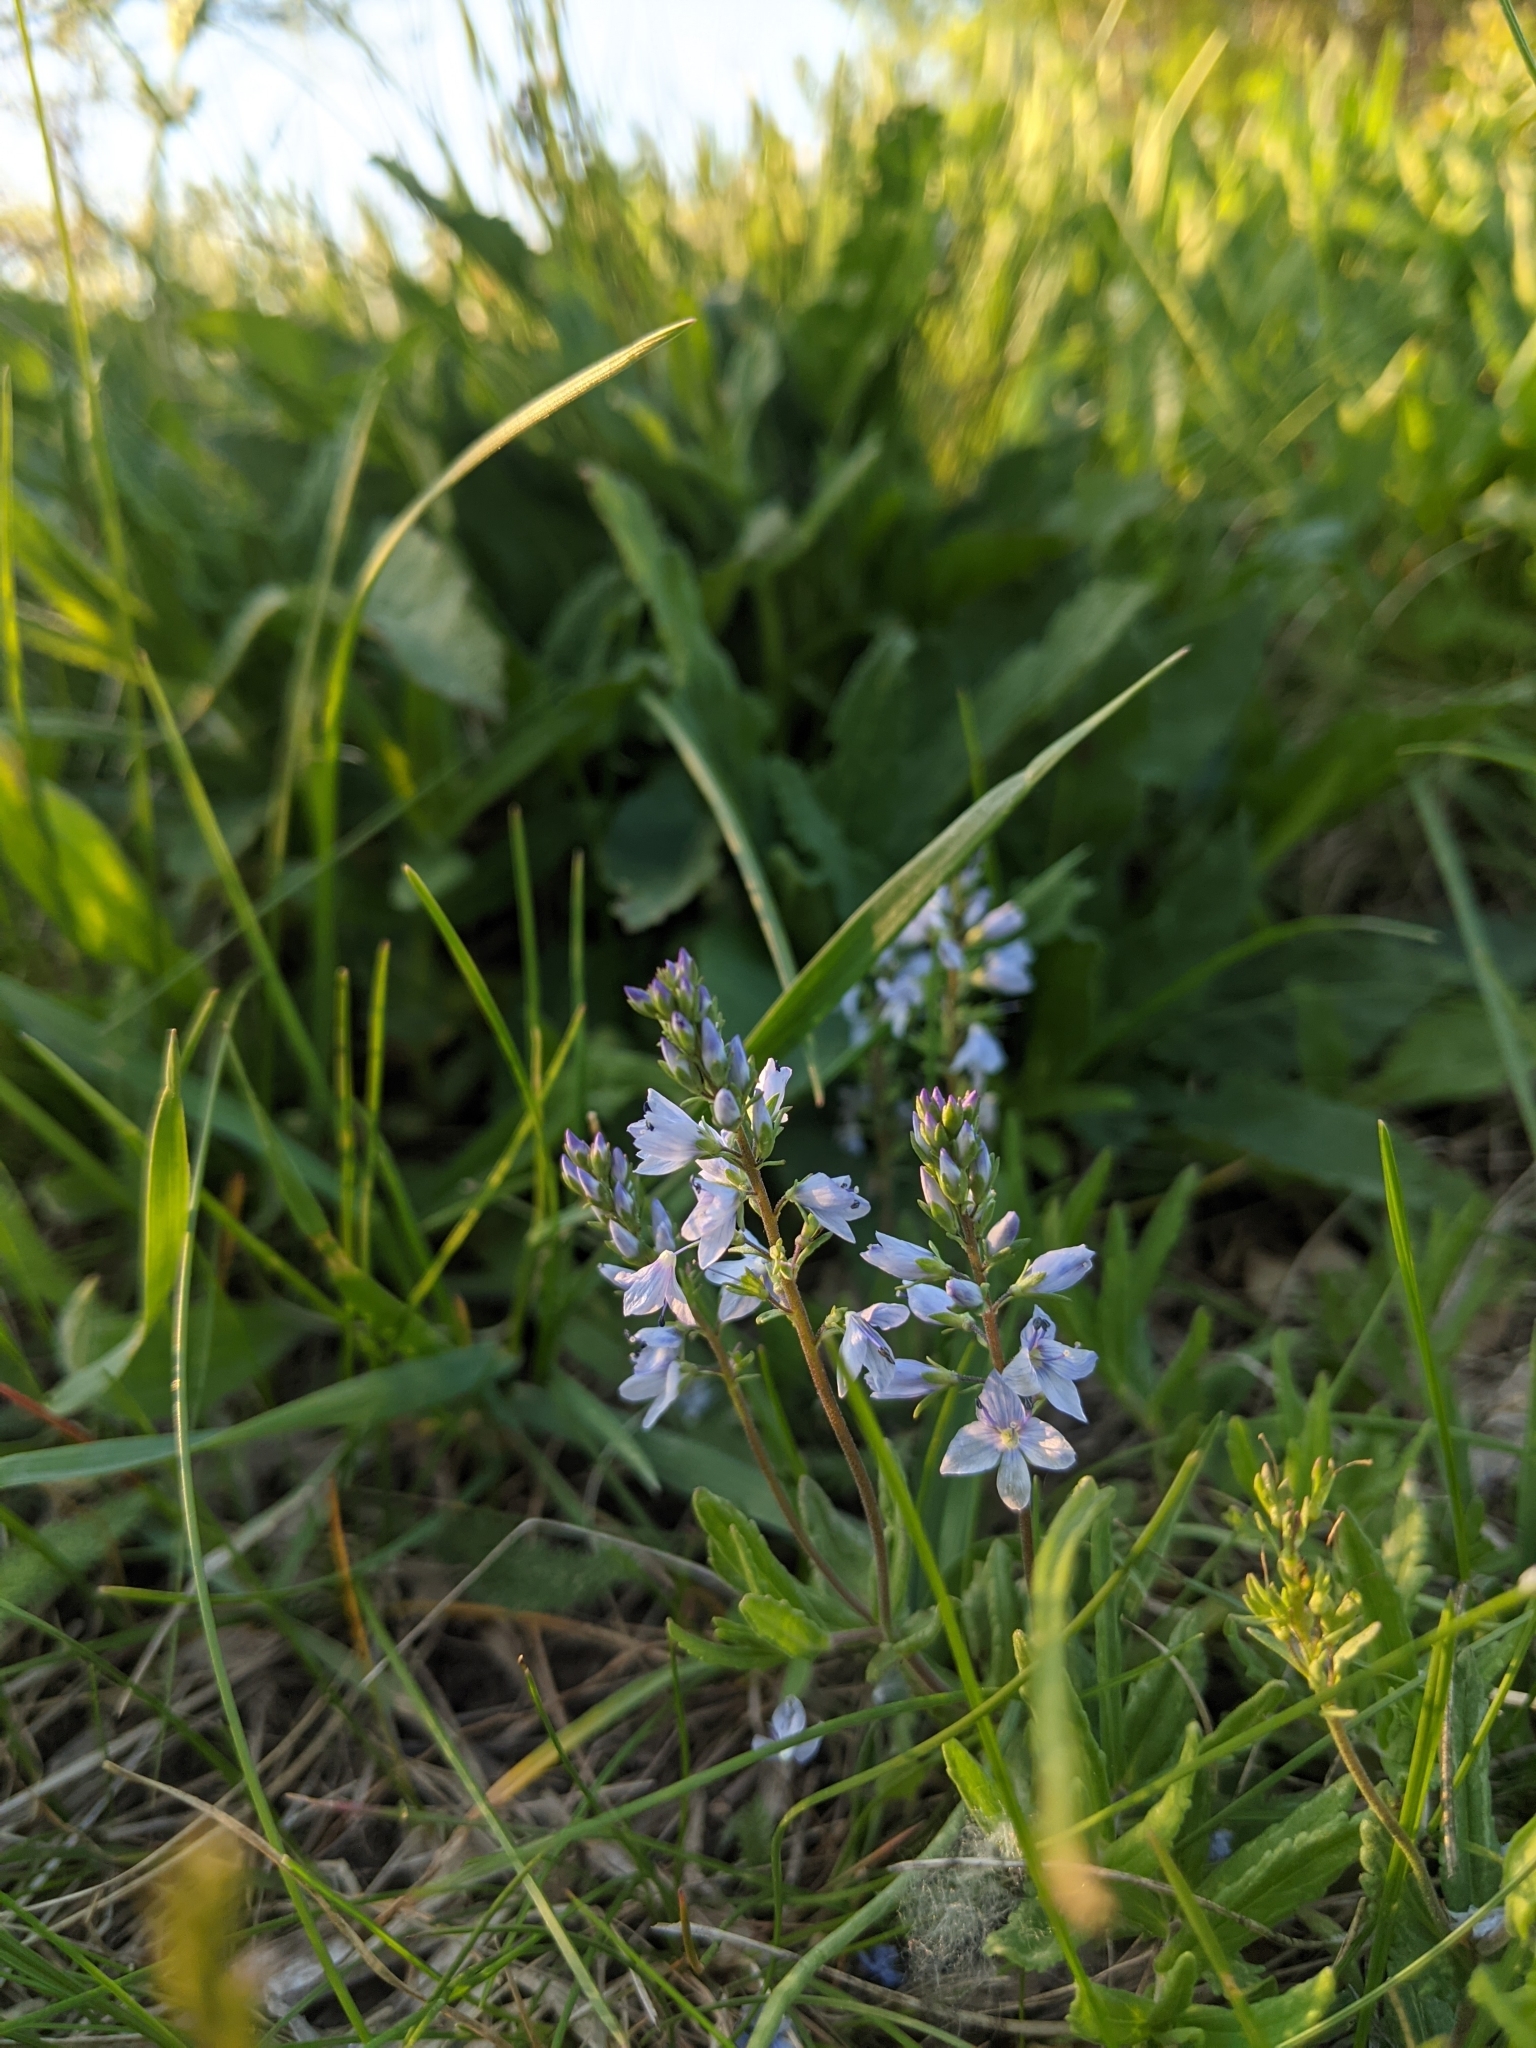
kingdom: Plantae
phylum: Tracheophyta
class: Magnoliopsida
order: Lamiales
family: Plantaginaceae
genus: Veronica
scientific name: Veronica prostrata
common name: Prostrate speedwell
